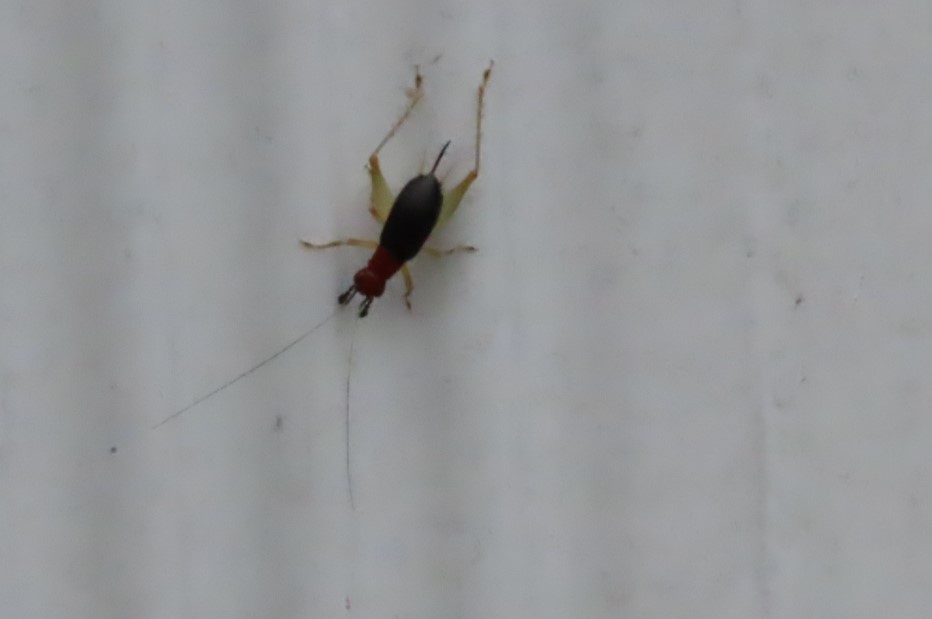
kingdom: Animalia
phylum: Arthropoda
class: Insecta
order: Orthoptera
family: Trigonidiidae
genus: Phyllopalpus
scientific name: Phyllopalpus pulchellus
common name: Handsome trig
